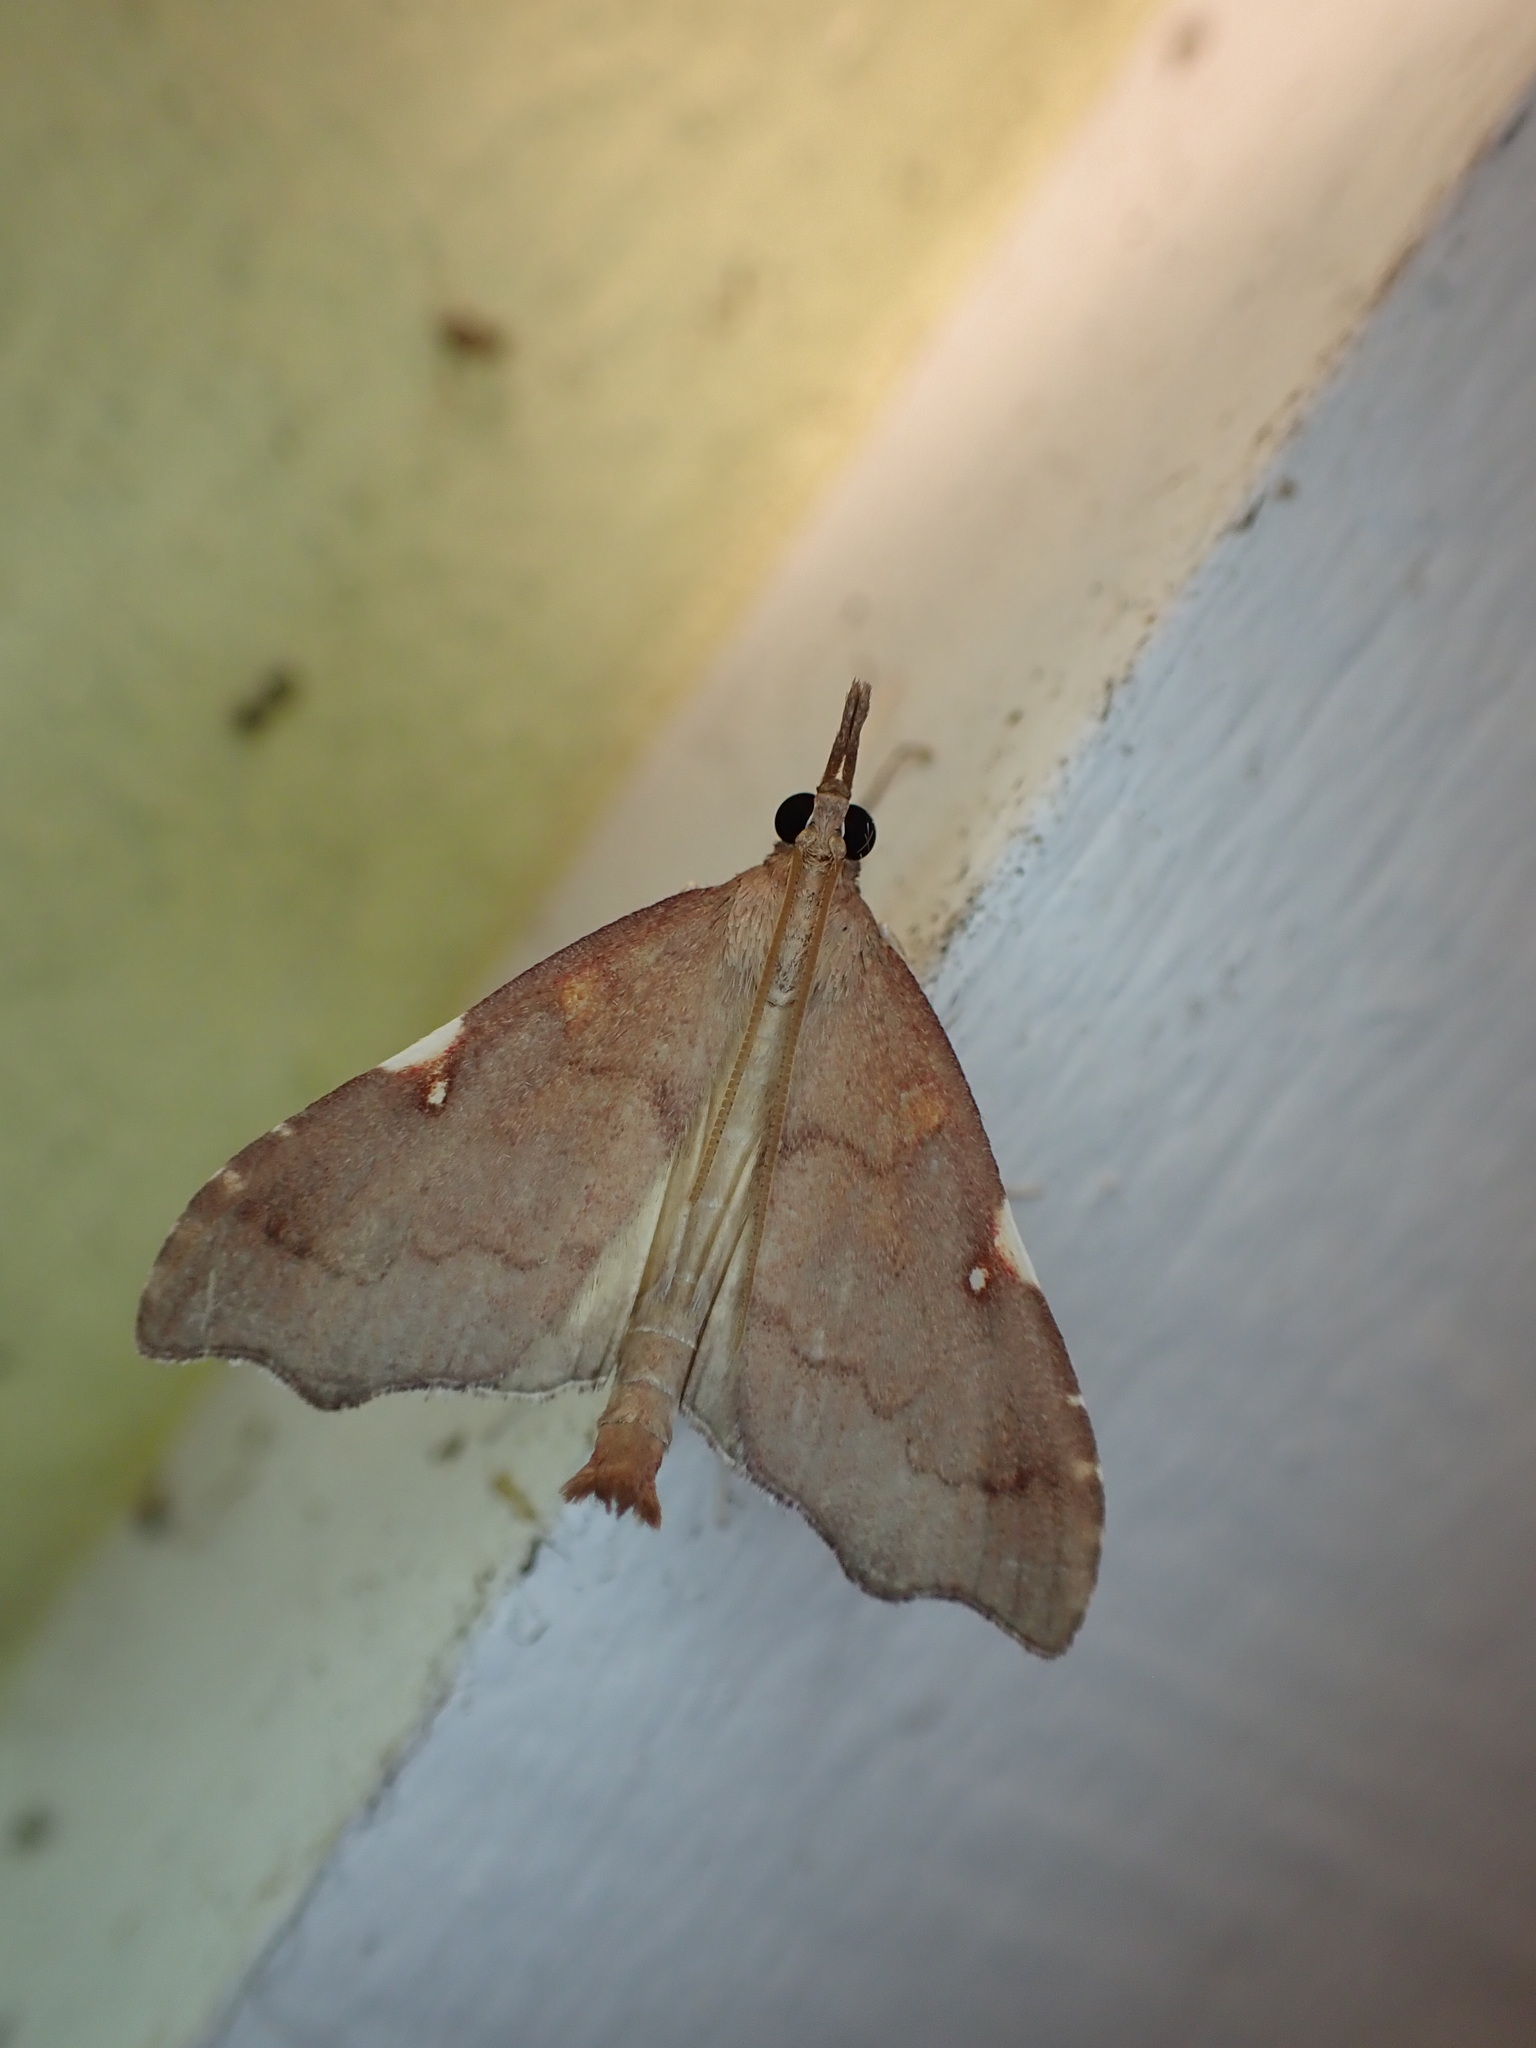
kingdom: Animalia
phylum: Arthropoda
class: Insecta
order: Lepidoptera
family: Crambidae
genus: Deana
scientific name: Deana hybreasalis
